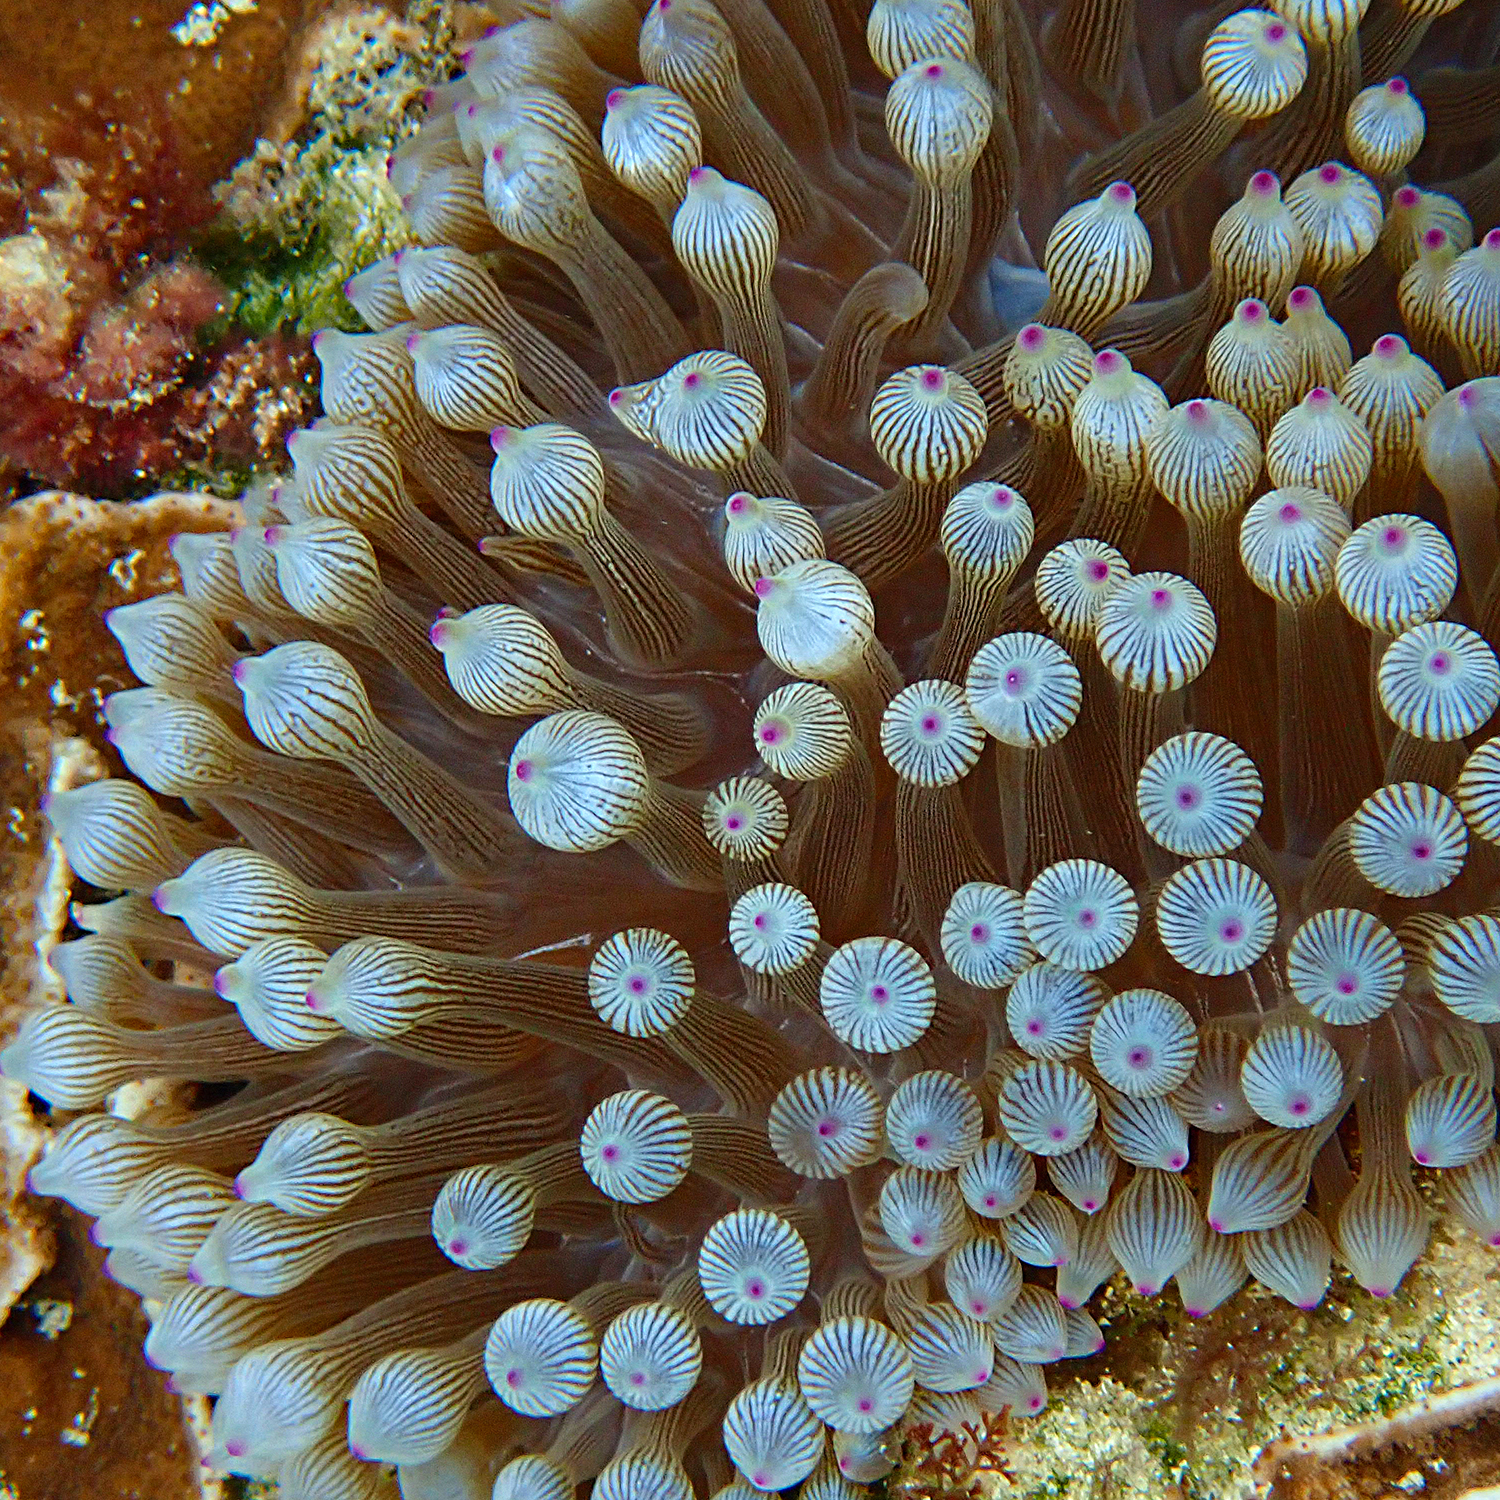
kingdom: Animalia
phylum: Cnidaria
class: Anthozoa
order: Actiniaria
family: Actiniidae
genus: Entacmaea
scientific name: Entacmaea quadricolor
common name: Bulb tentacle sea anemone
